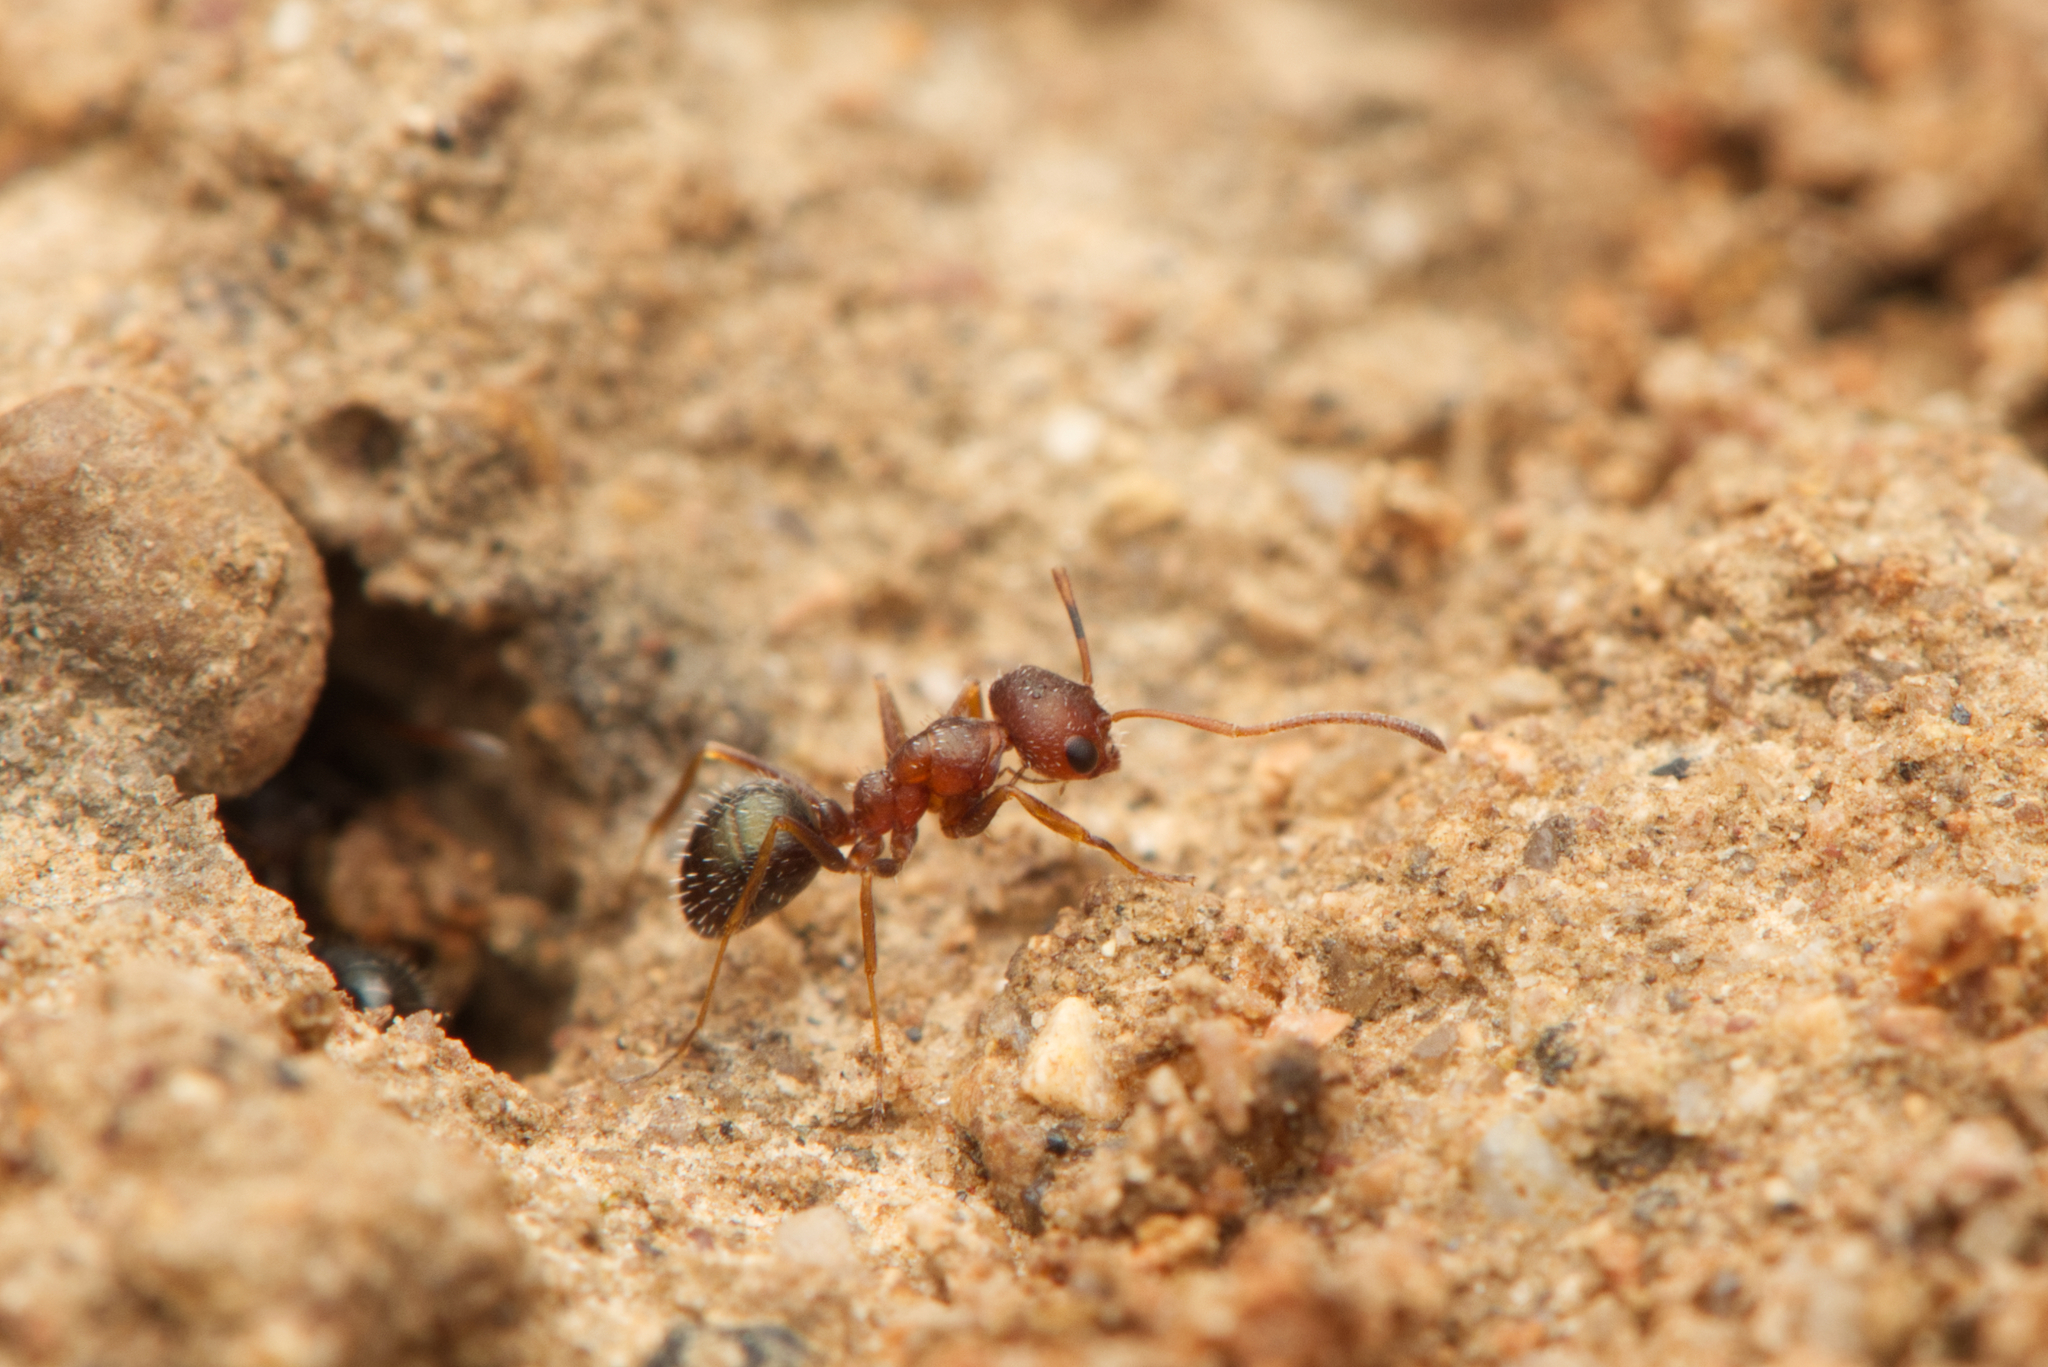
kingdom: Animalia
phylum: Arthropoda
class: Insecta
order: Hymenoptera
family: Formicidae
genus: Melophorus
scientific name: Melophorus bruneus
